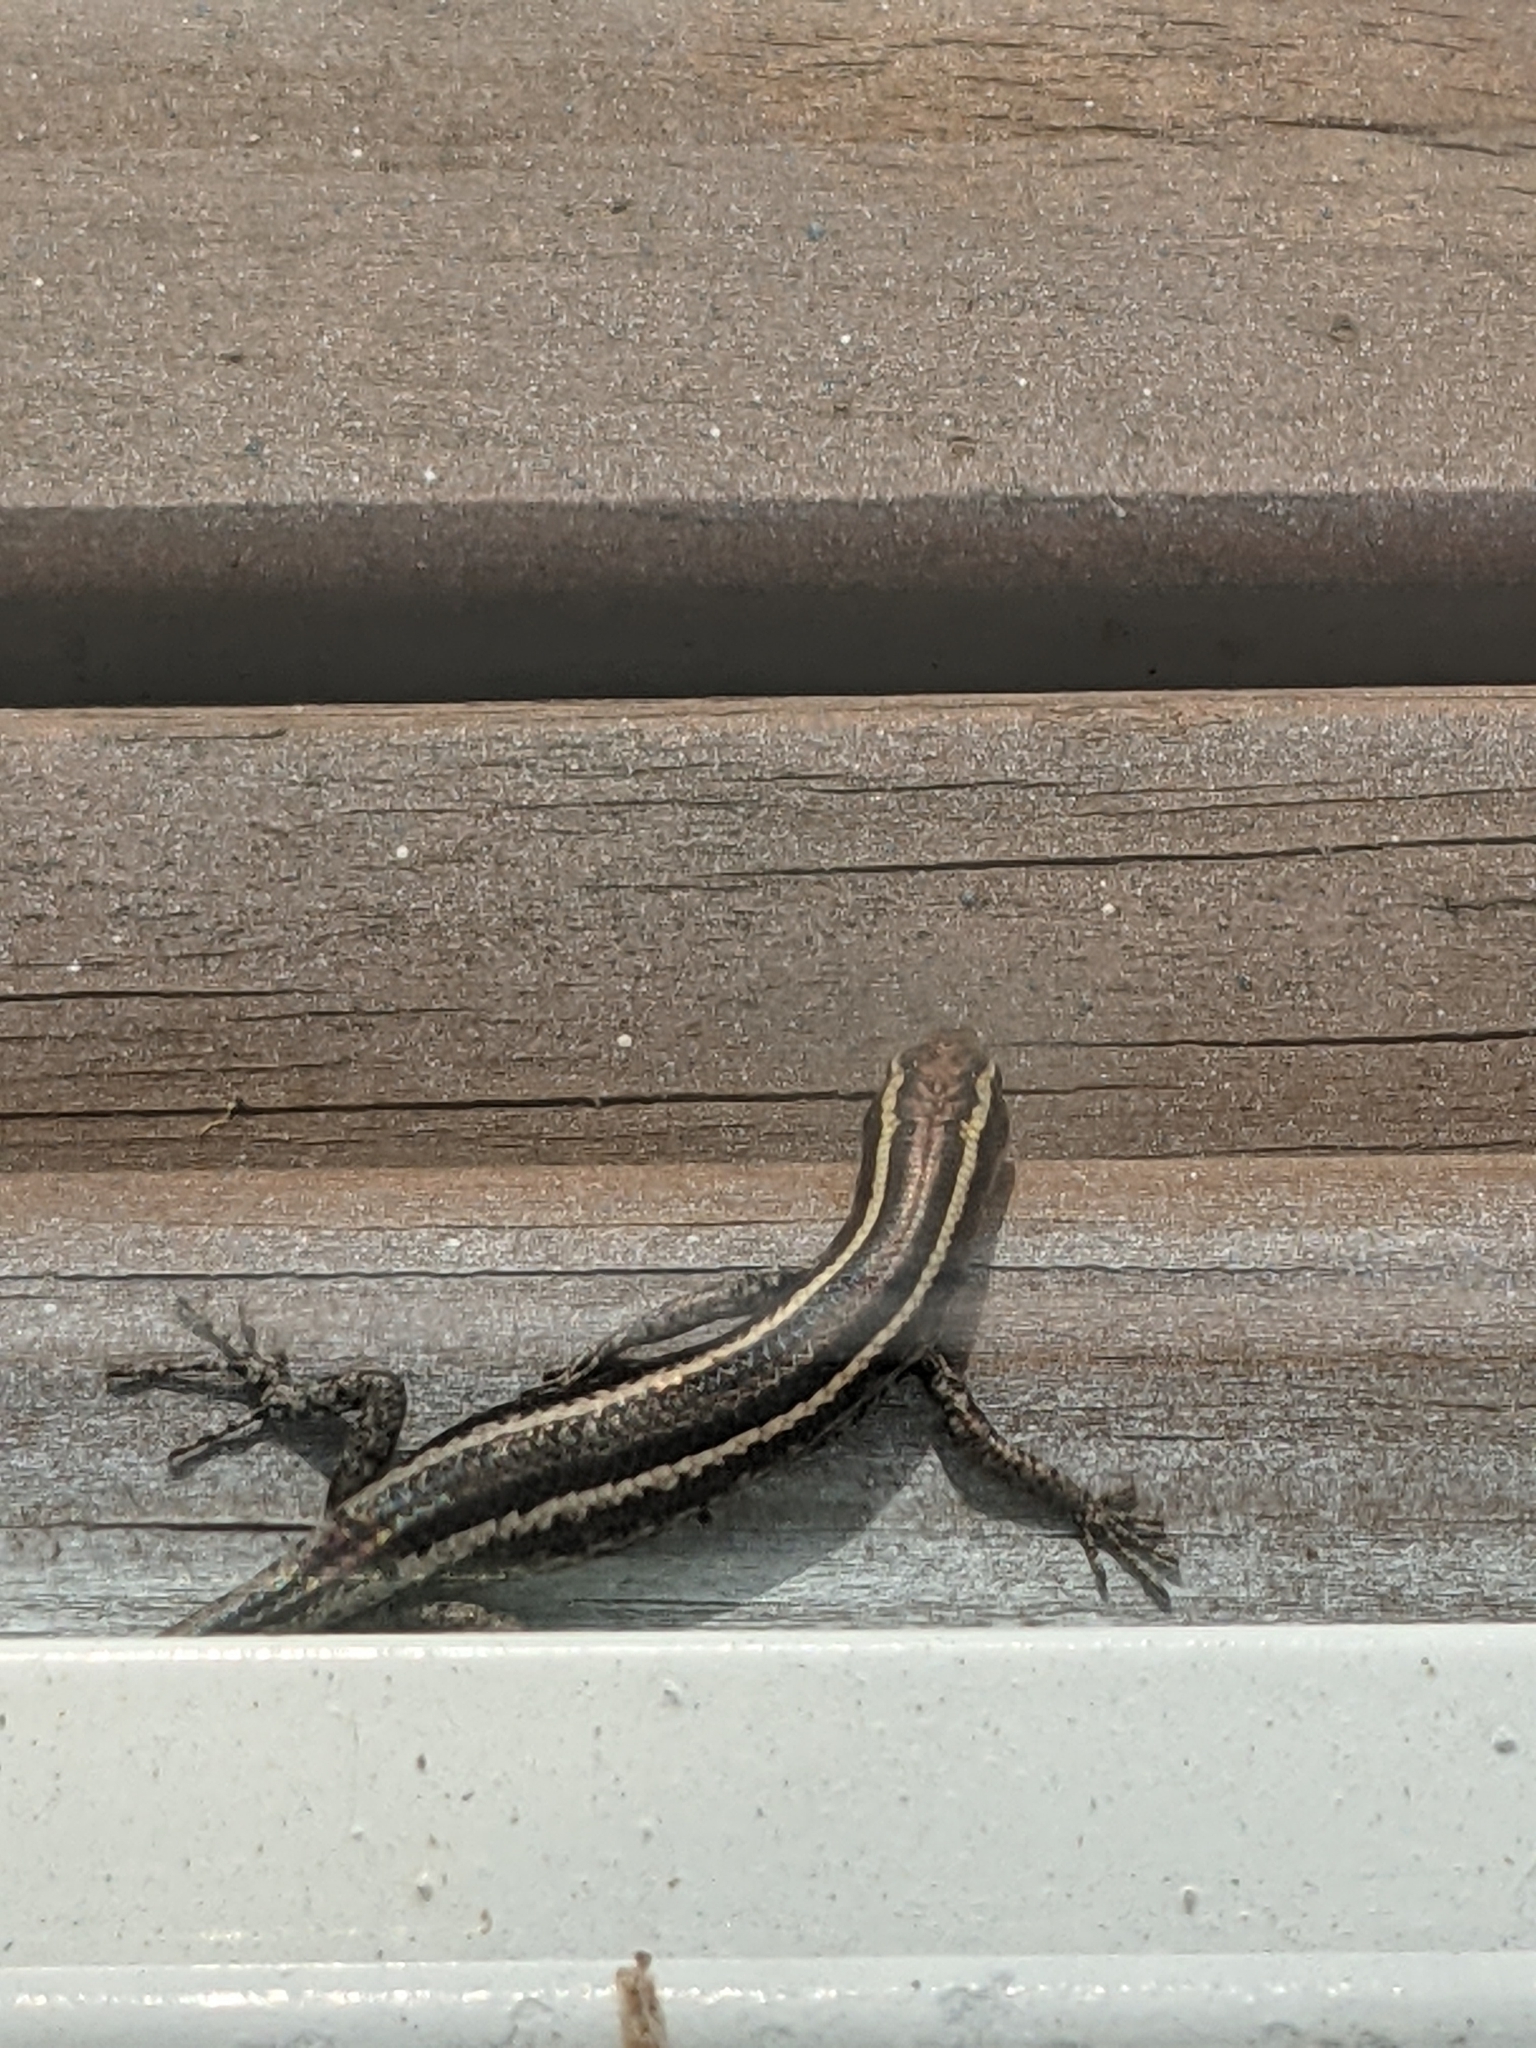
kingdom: Animalia
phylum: Chordata
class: Squamata
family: Scincidae
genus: Cryptoblepharus
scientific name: Cryptoblepharus pulcher
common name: Elegant snake-eyed skink
